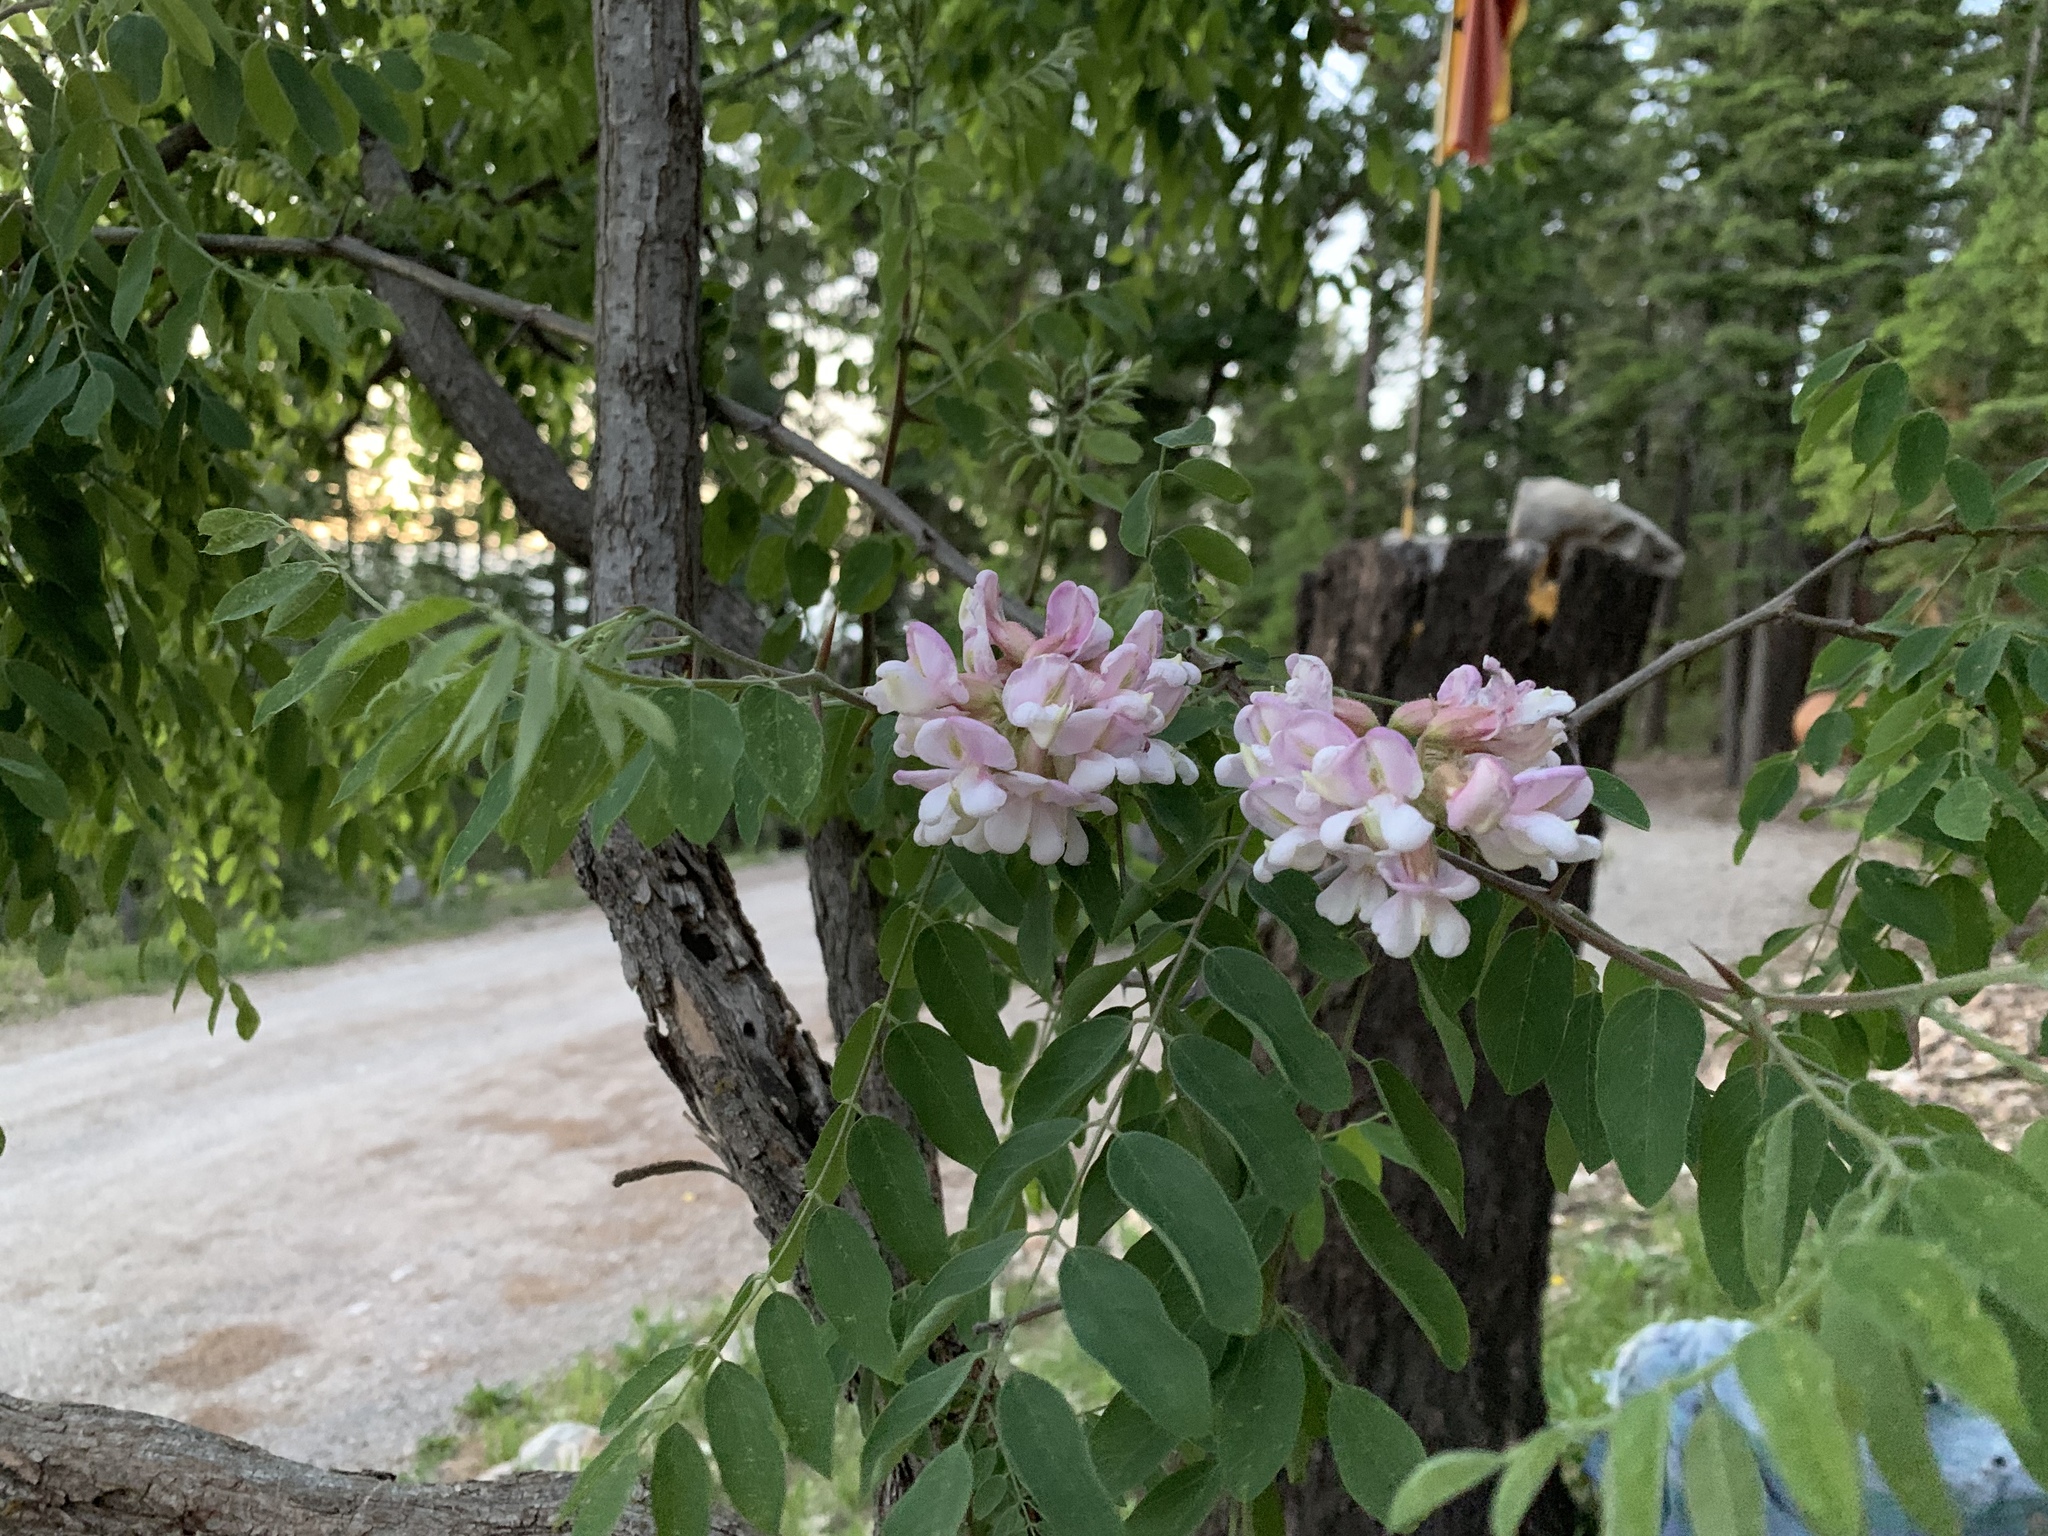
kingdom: Plantae
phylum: Tracheophyta
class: Magnoliopsida
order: Fabales
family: Fabaceae
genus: Robinia
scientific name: Robinia neomexicana
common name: New mexico locust
